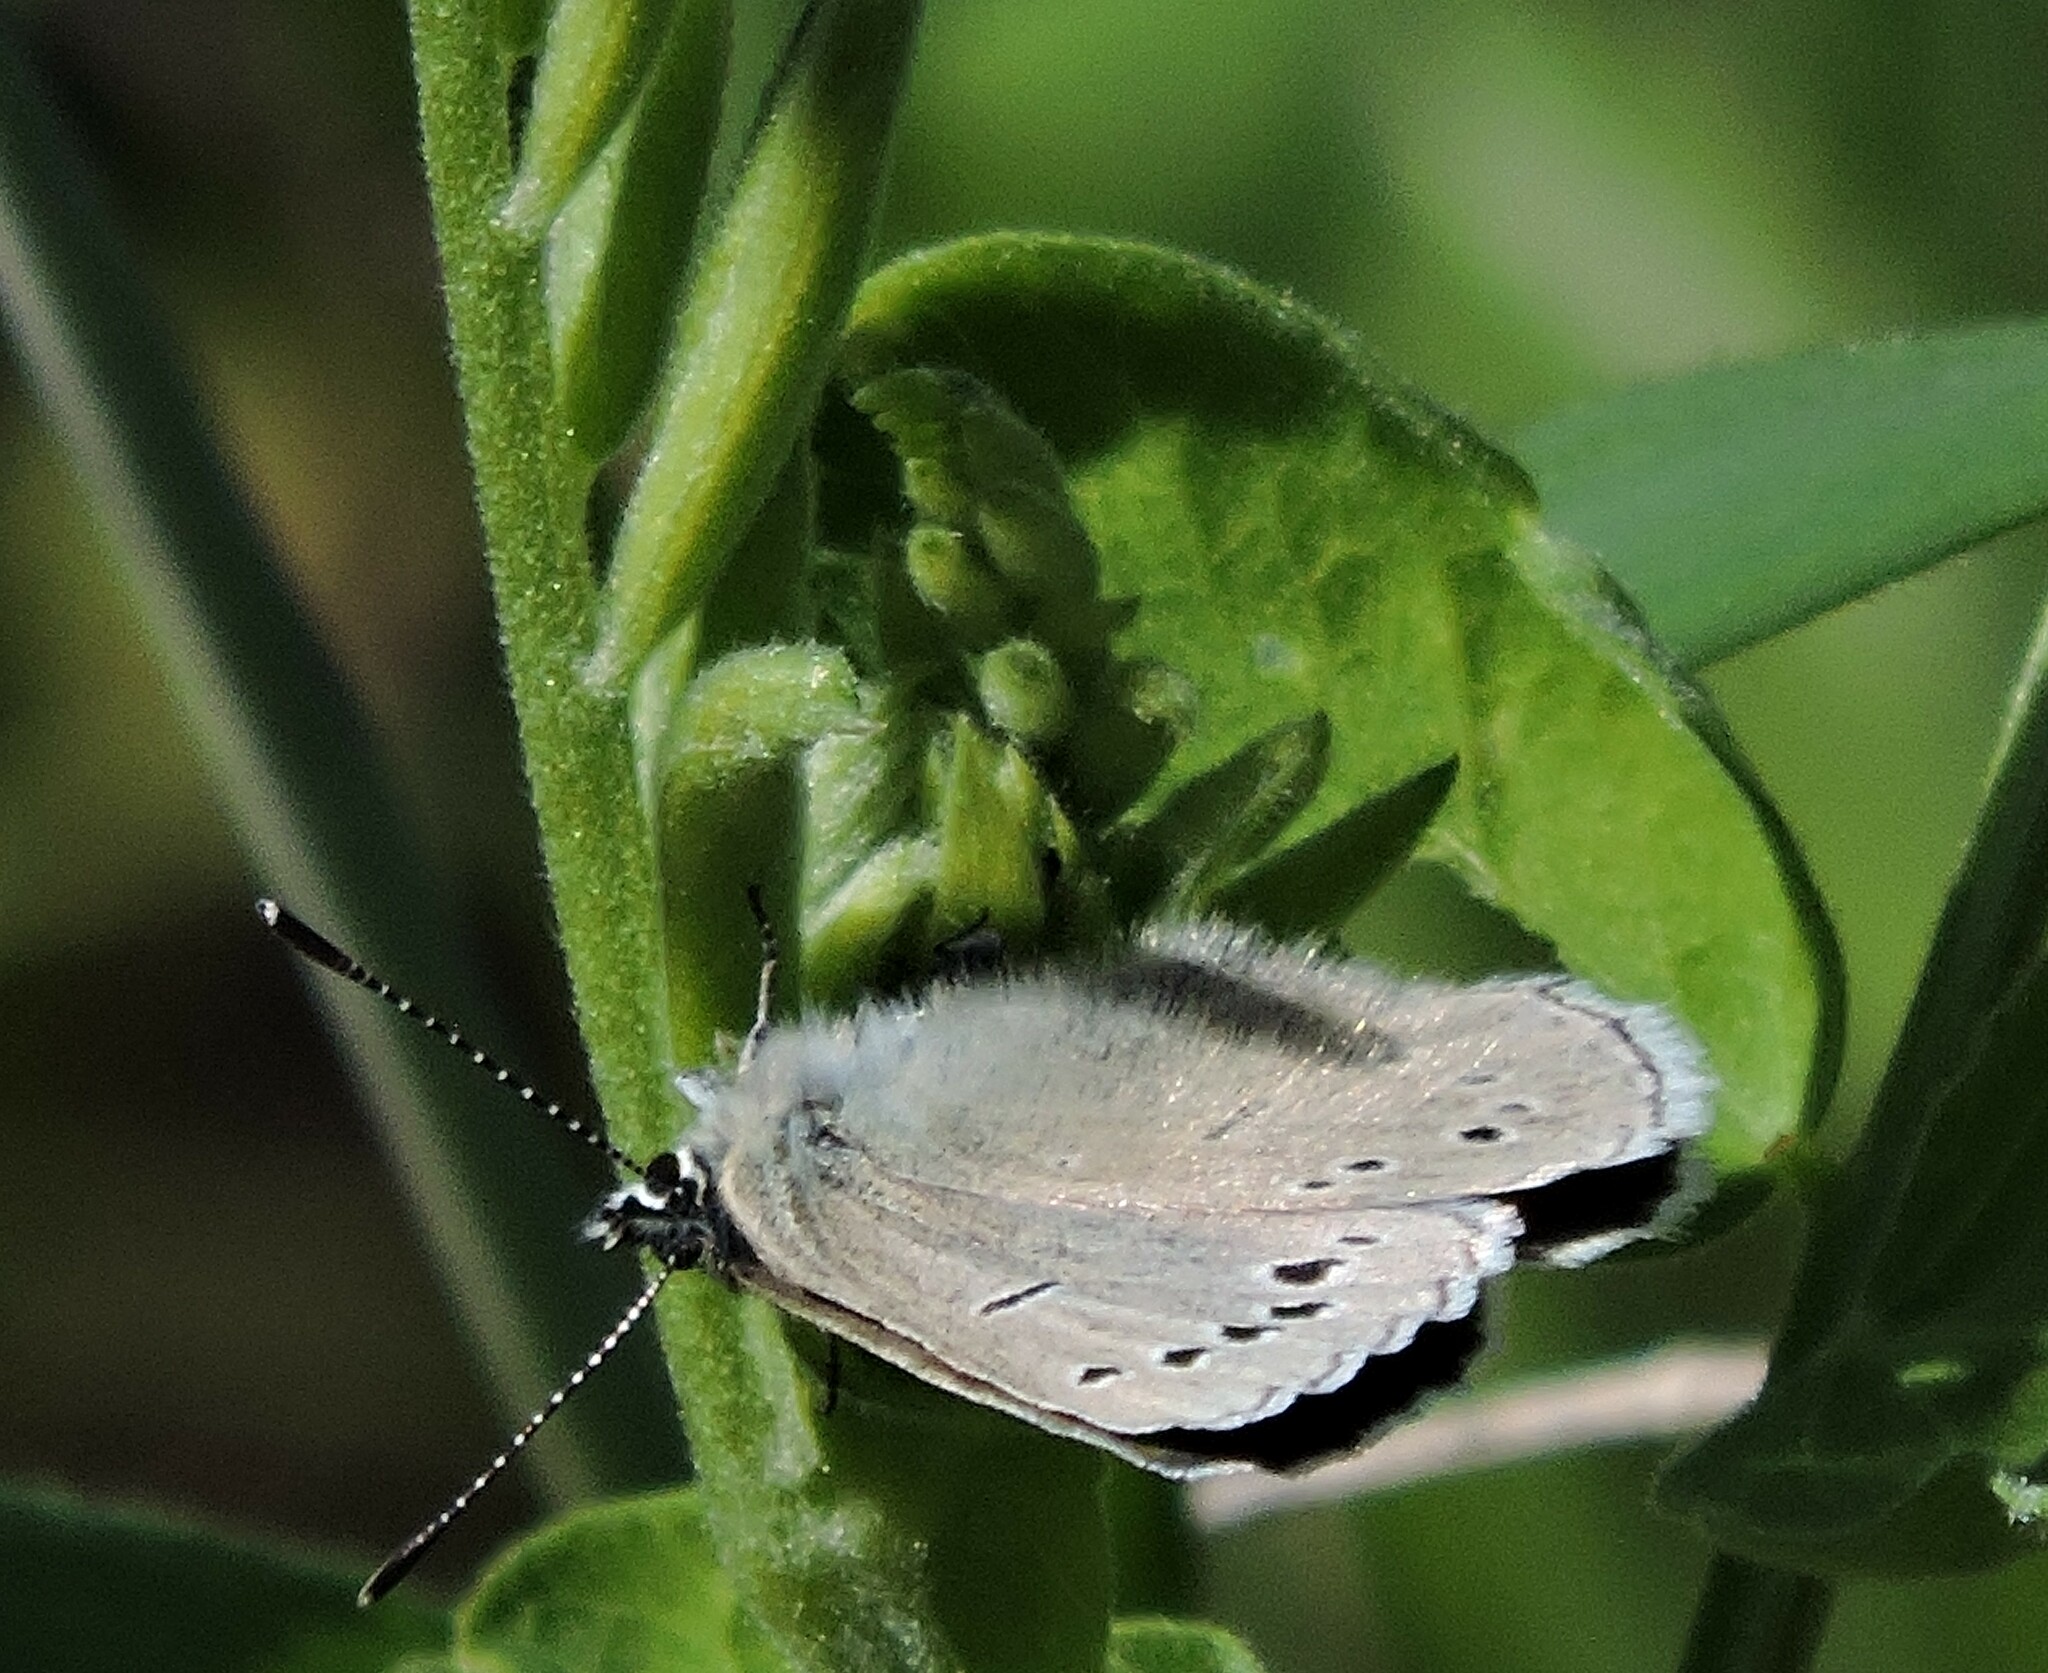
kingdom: Animalia
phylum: Arthropoda
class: Insecta
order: Lepidoptera
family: Lycaenidae
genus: Glaucopsyche
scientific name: Glaucopsyche lygdamus
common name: Silvery blue
